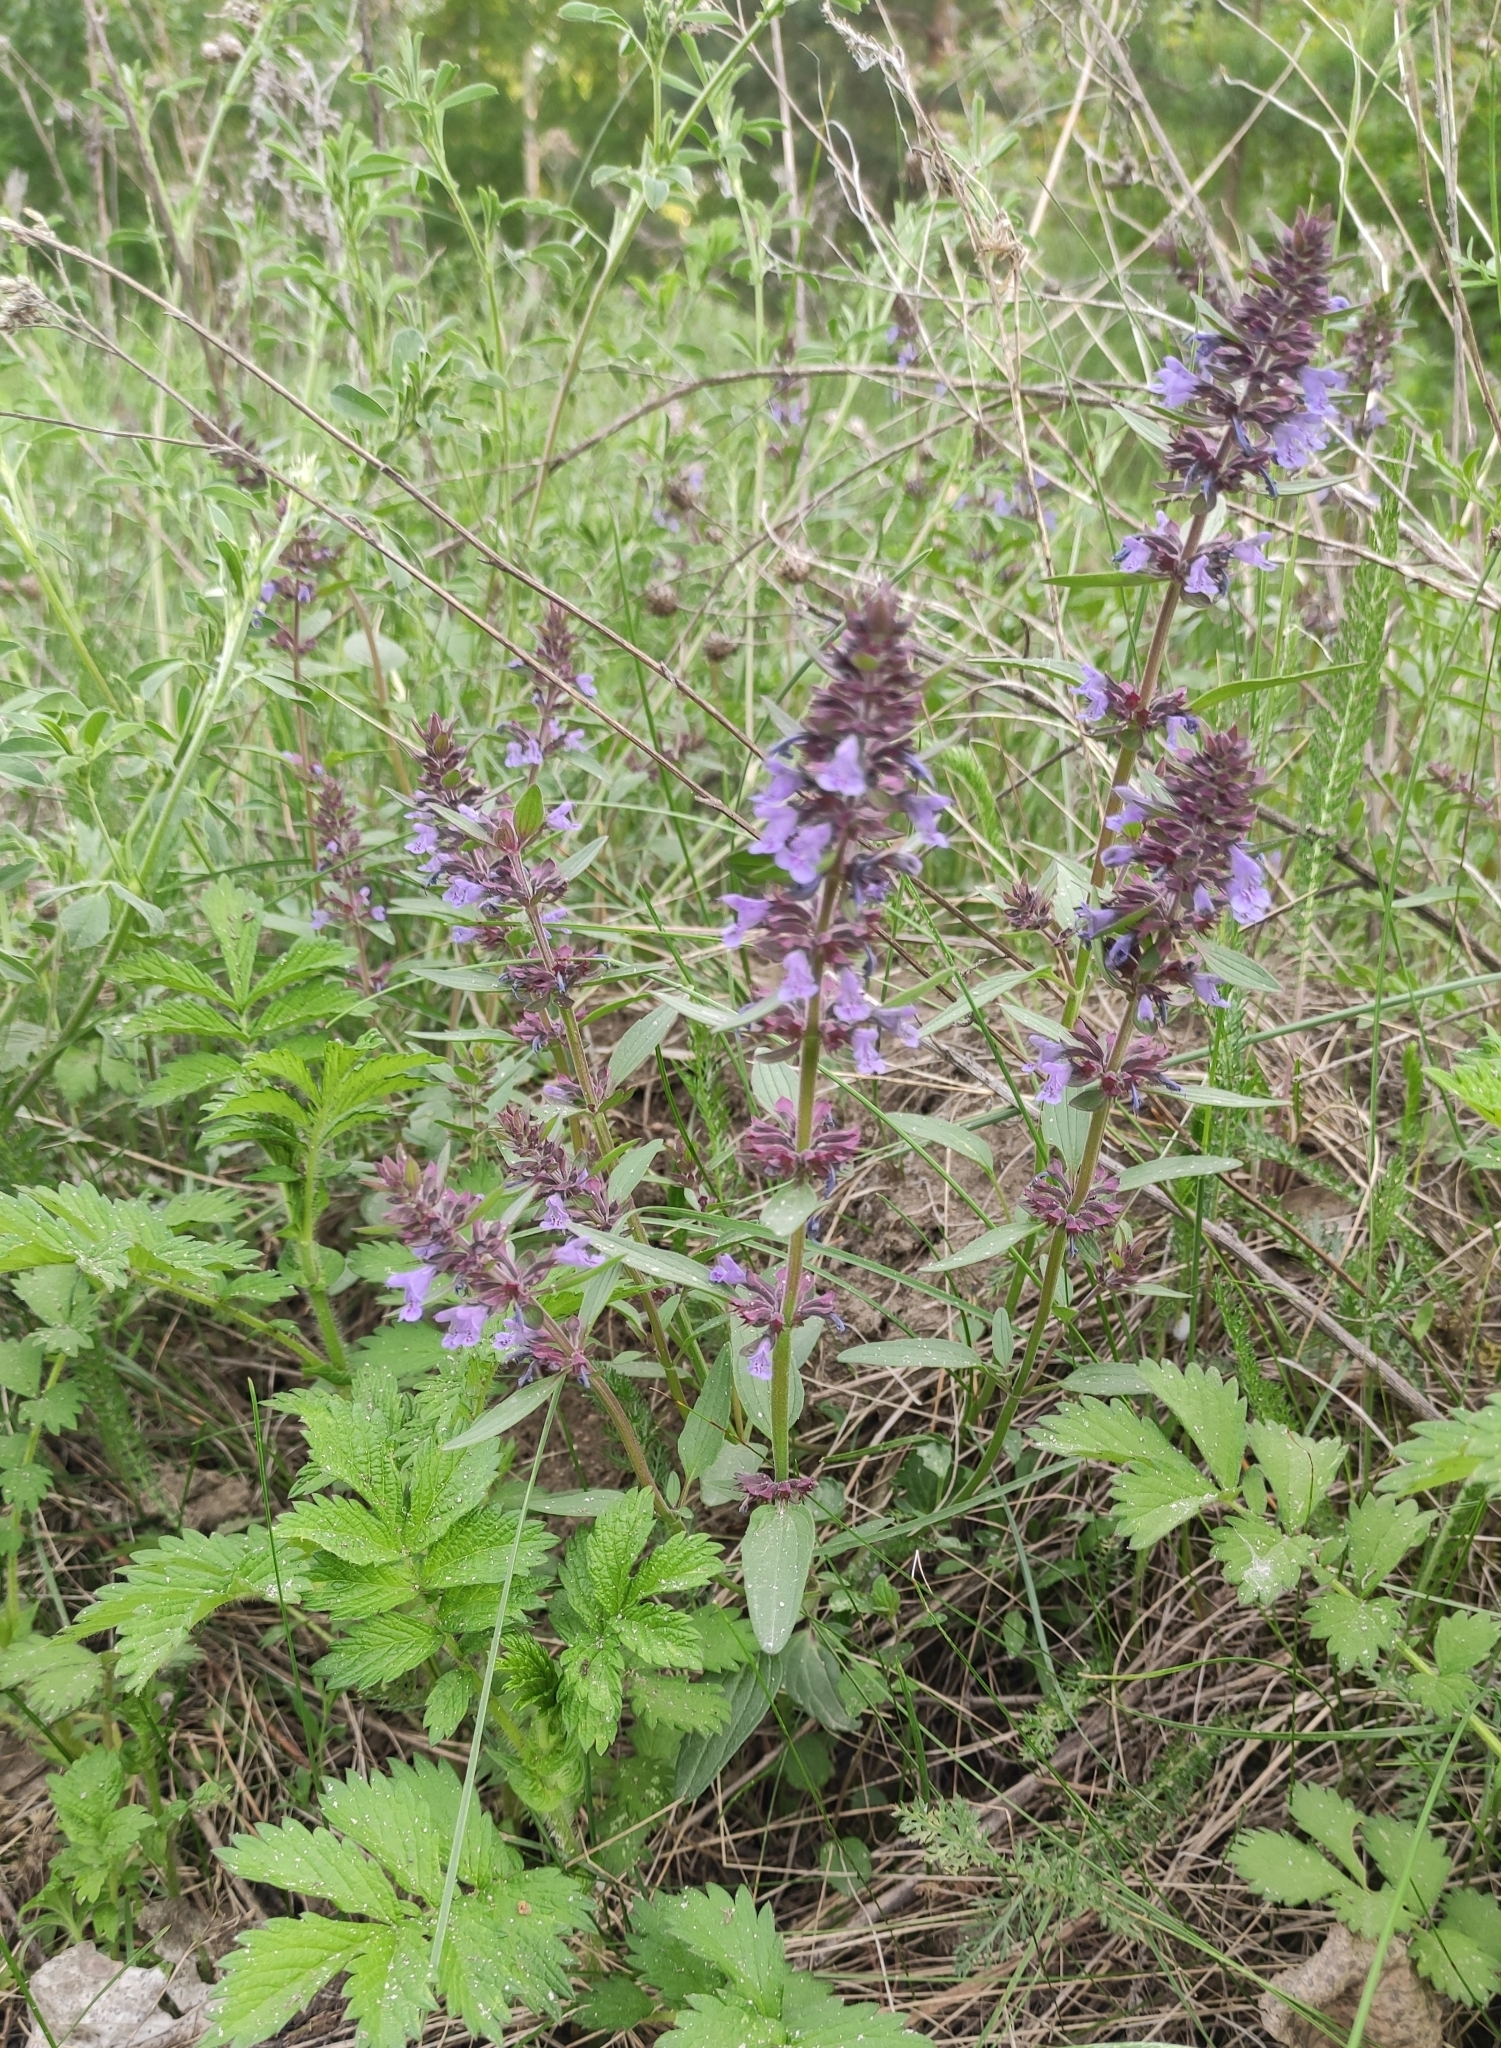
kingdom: Plantae
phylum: Tracheophyta
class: Magnoliopsida
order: Lamiales
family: Lamiaceae
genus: Dracocephalum
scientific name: Dracocephalum nutans
